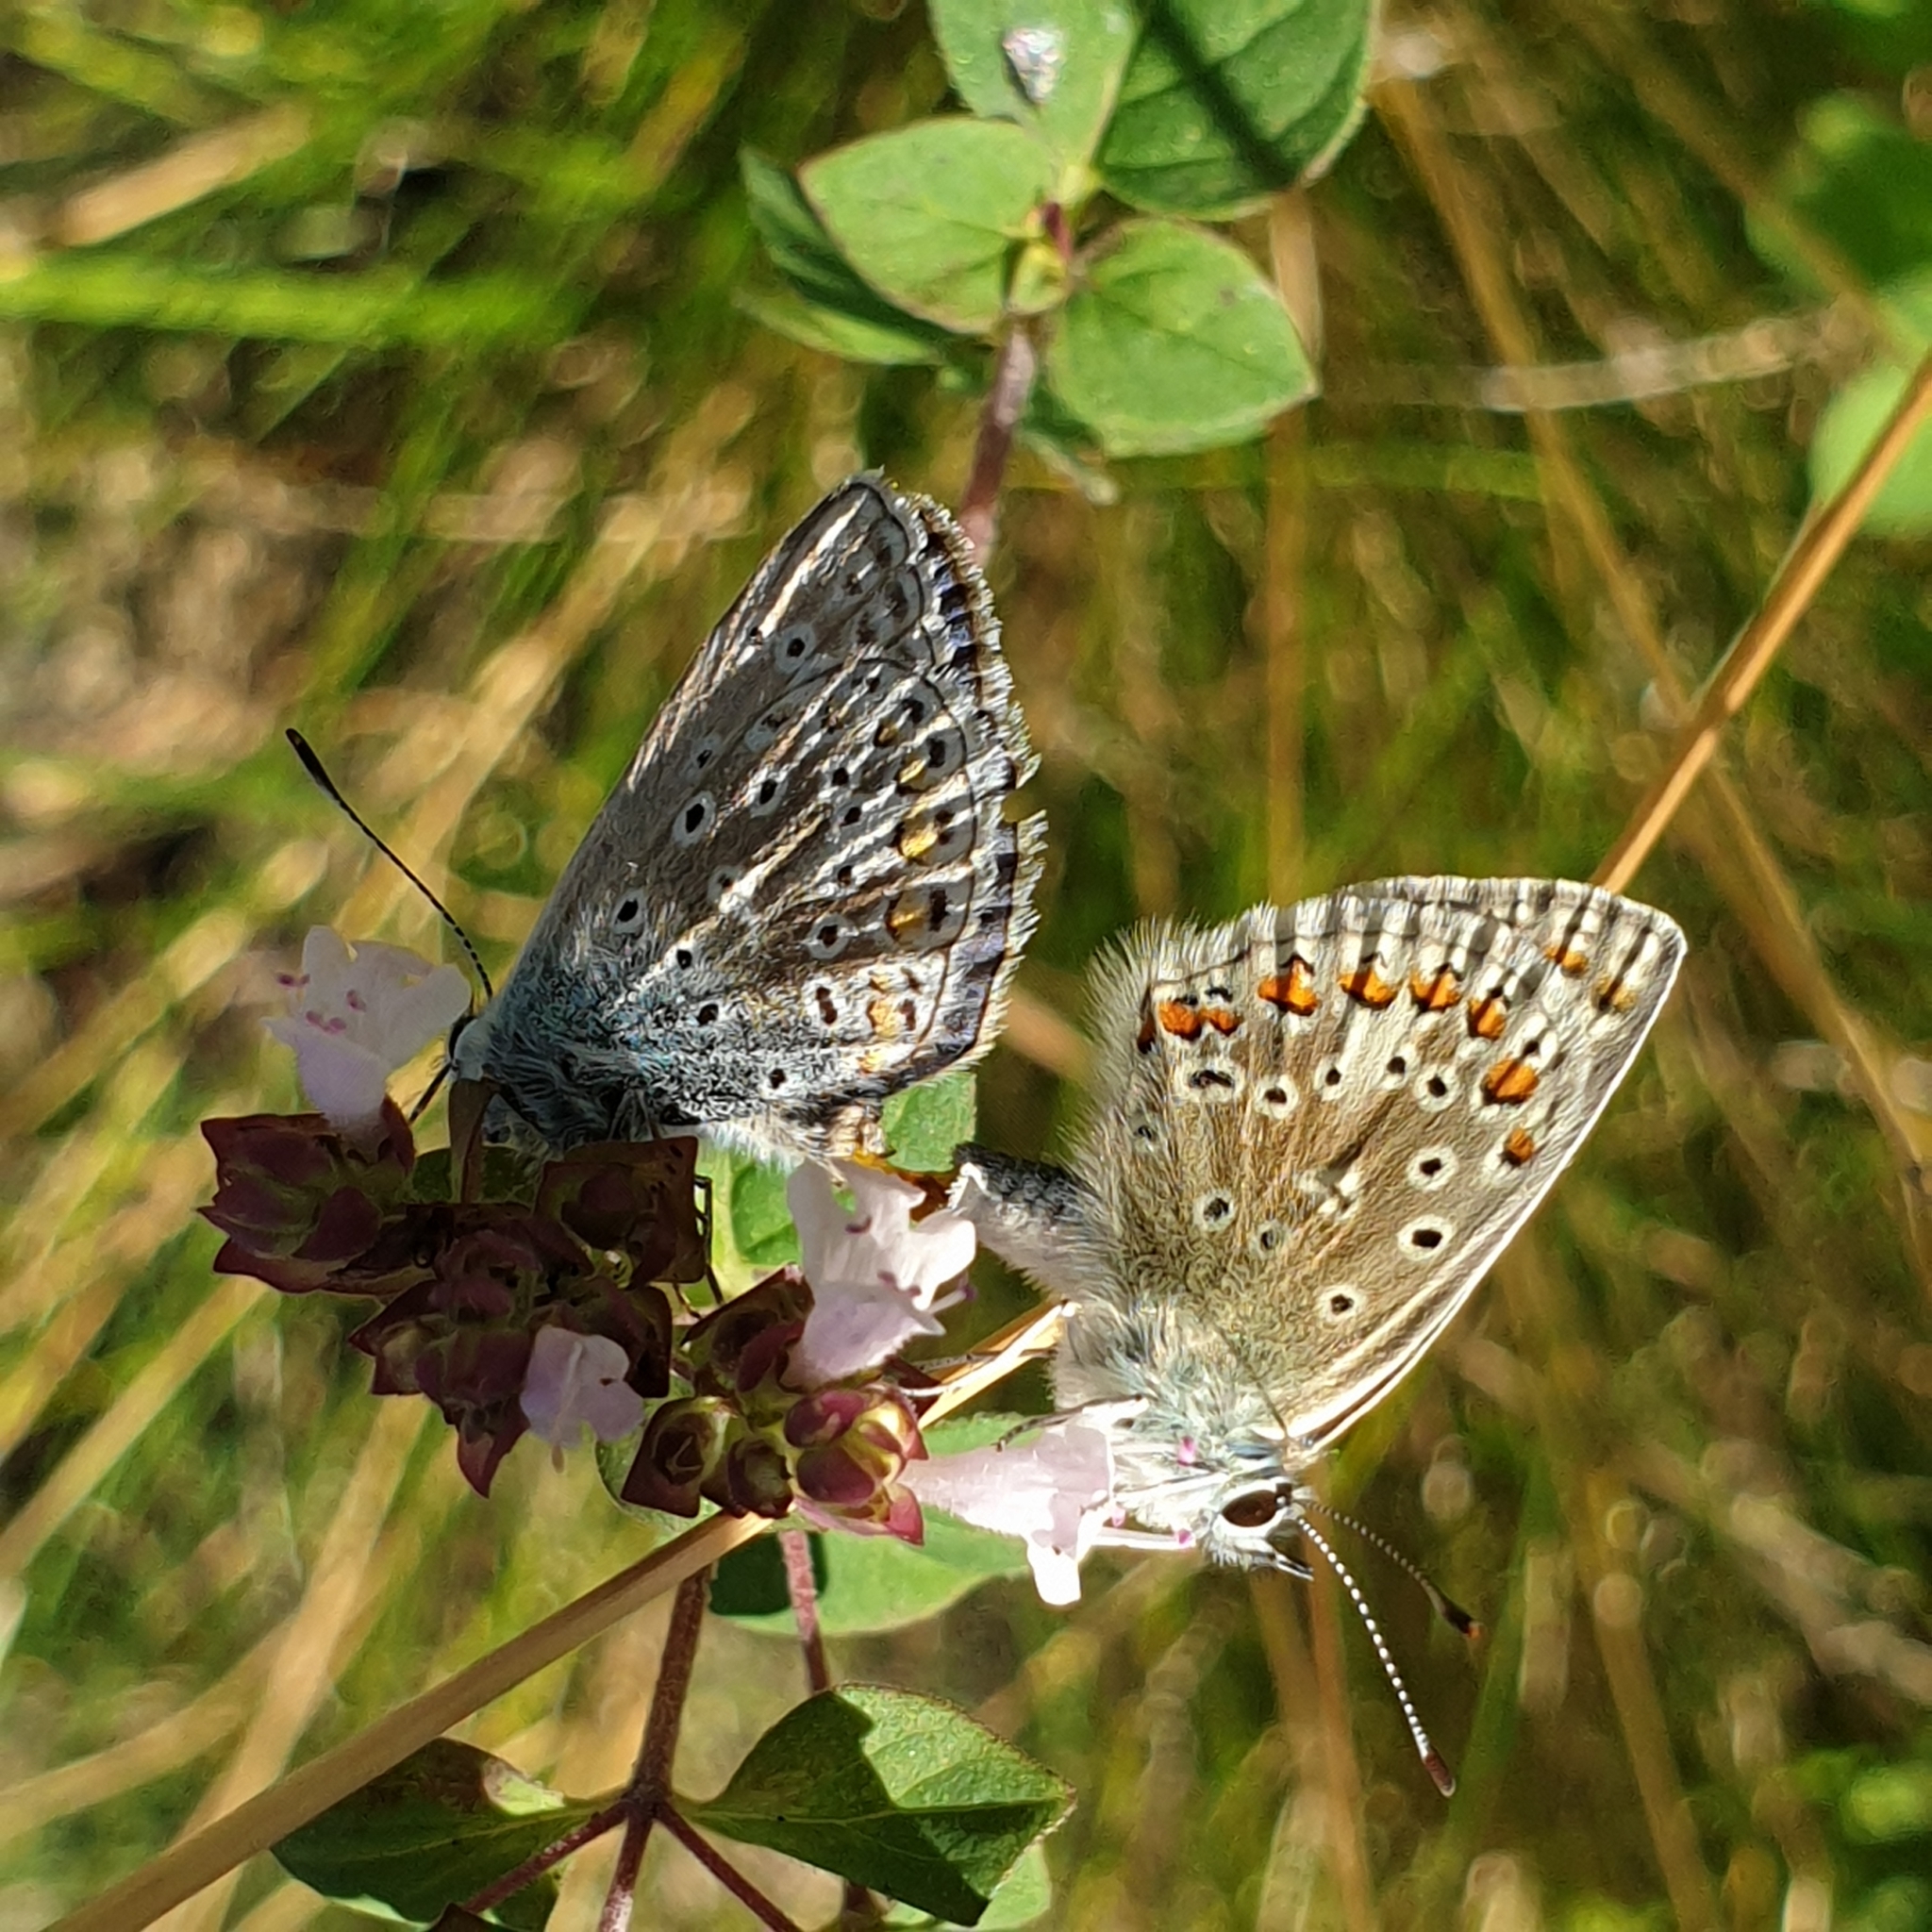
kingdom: Animalia
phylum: Arthropoda
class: Insecta
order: Lepidoptera
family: Lycaenidae
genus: Polyommatus
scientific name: Polyommatus icarus
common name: Common blue
